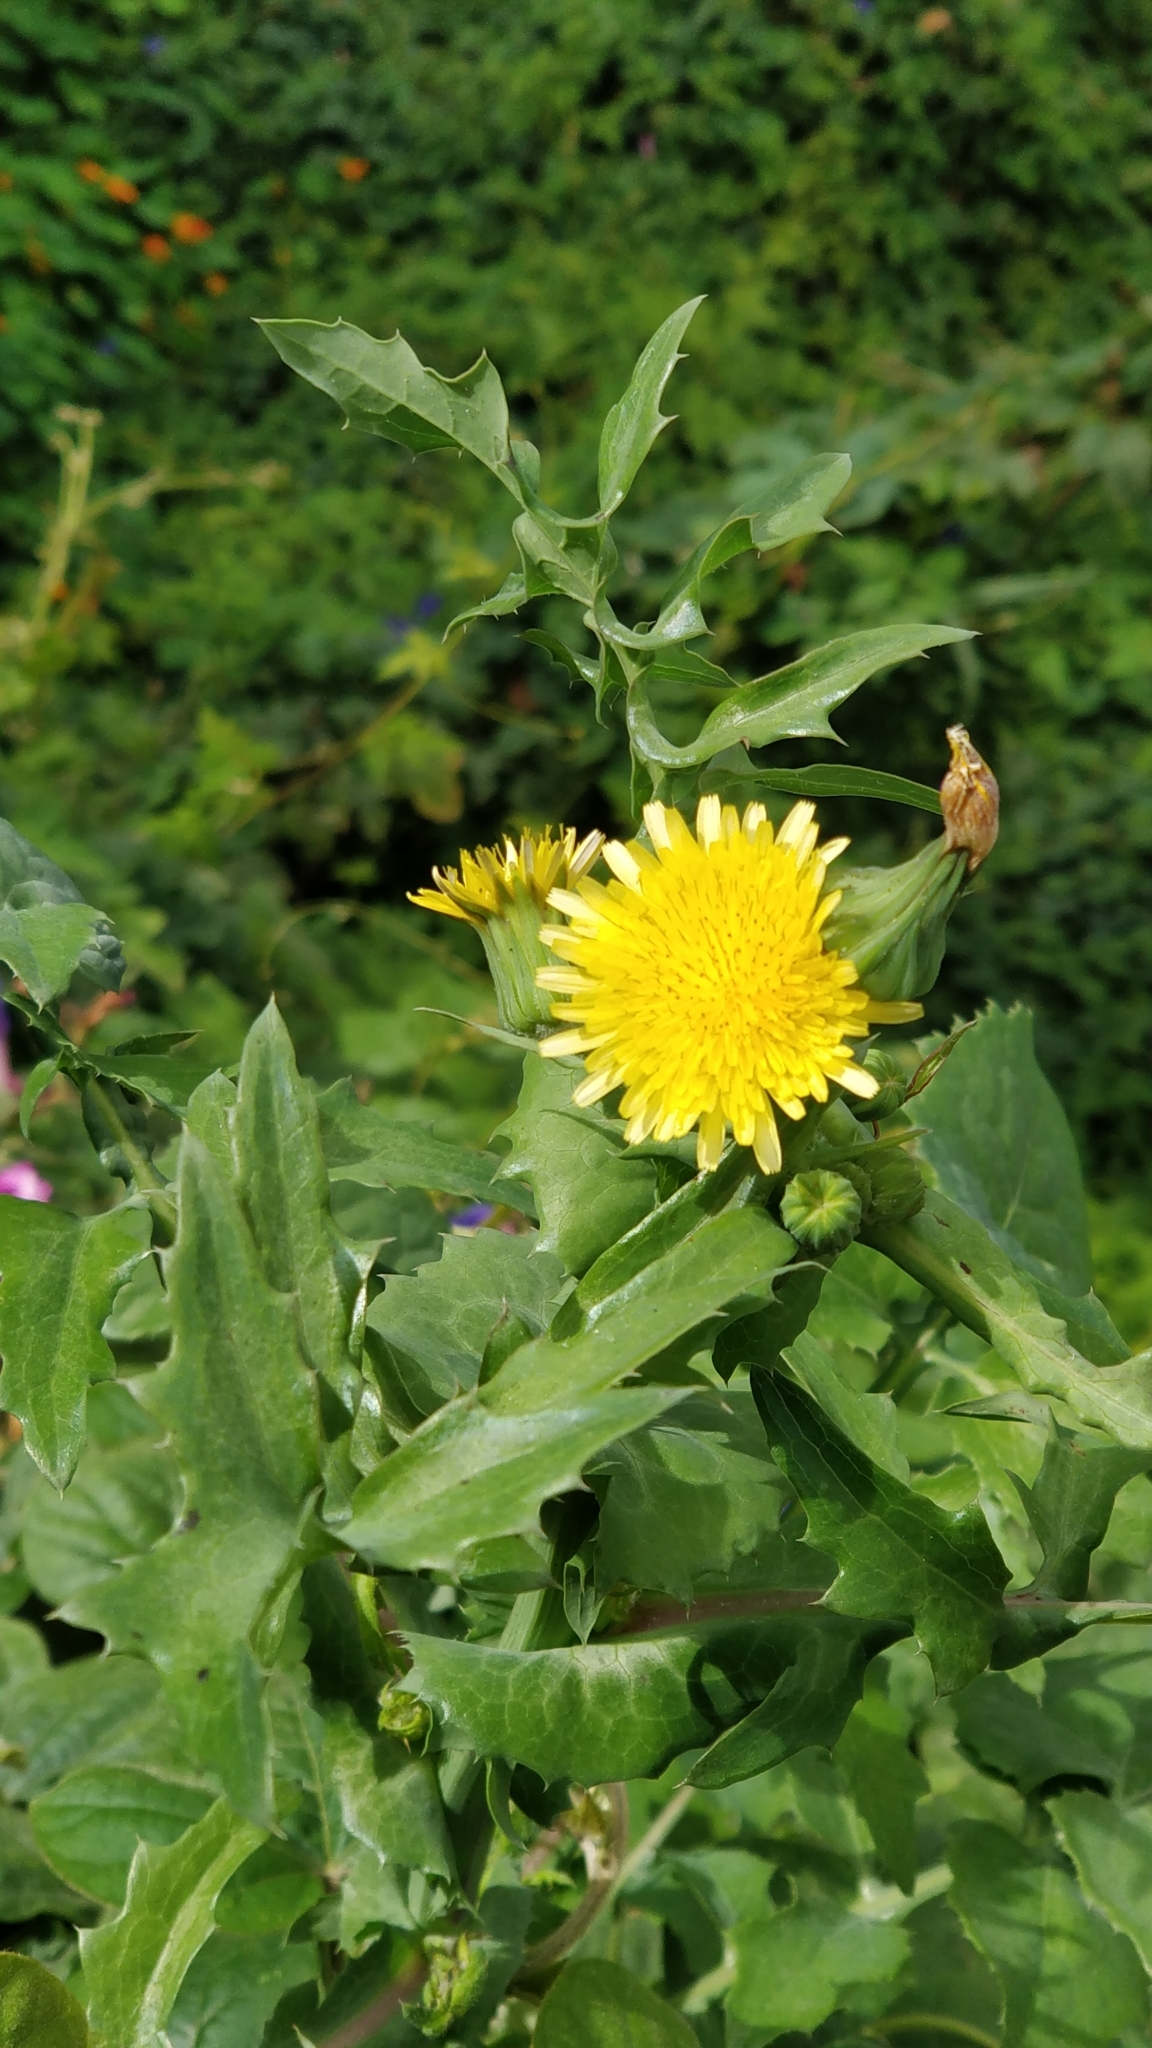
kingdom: Plantae
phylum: Tracheophyta
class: Magnoliopsida
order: Asterales
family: Asteraceae
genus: Sonchus
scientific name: Sonchus oleraceus
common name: Common sowthistle
